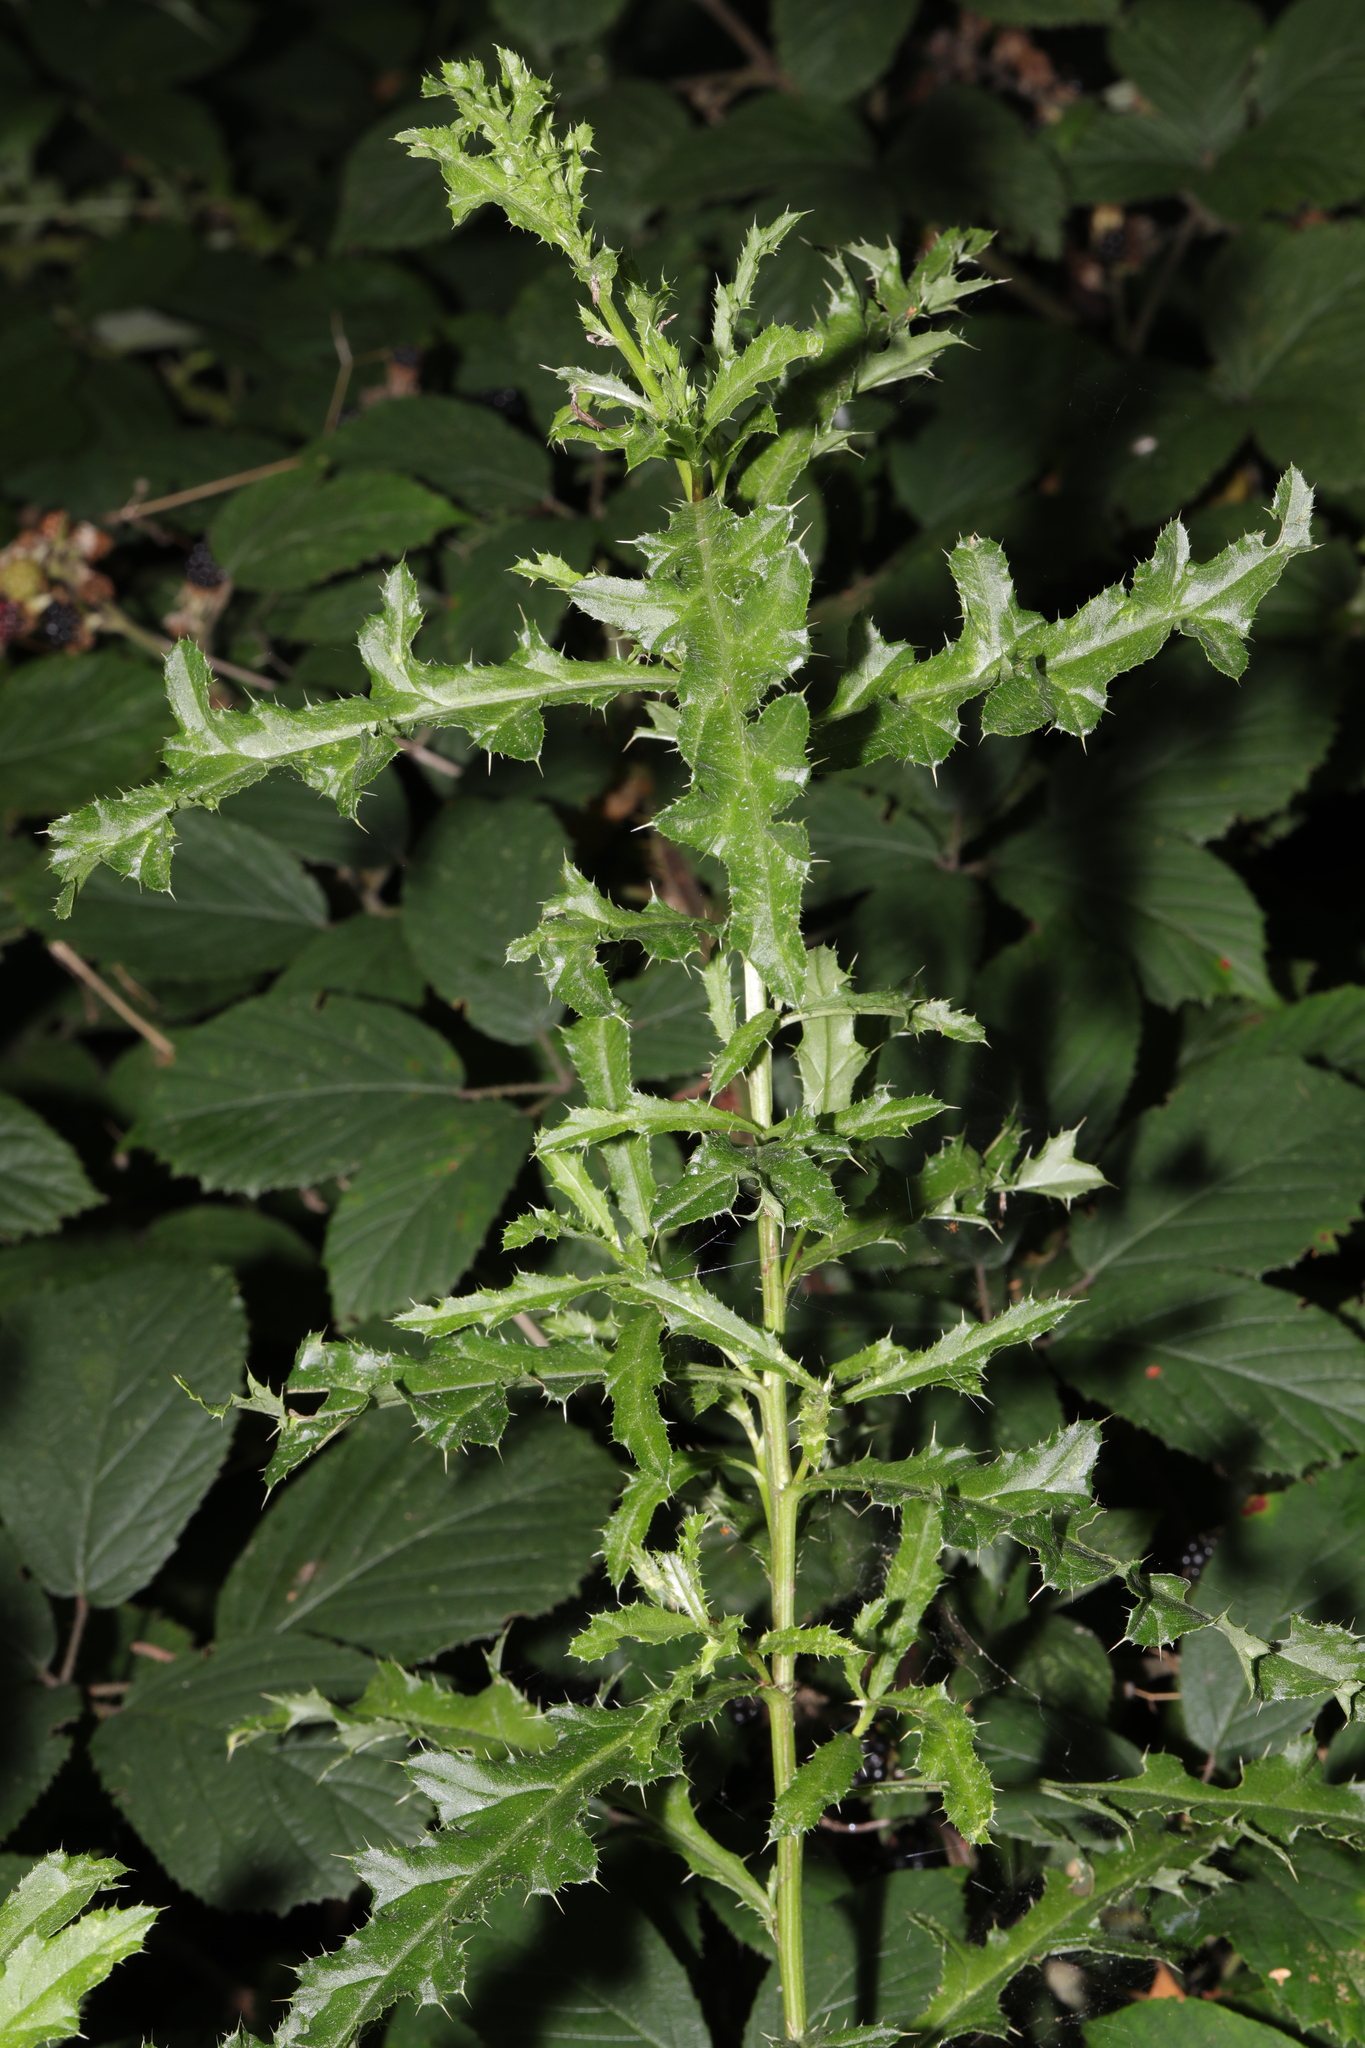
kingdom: Plantae
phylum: Tracheophyta
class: Magnoliopsida
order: Asterales
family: Asteraceae
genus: Cirsium
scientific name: Cirsium arvense
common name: Creeping thistle
